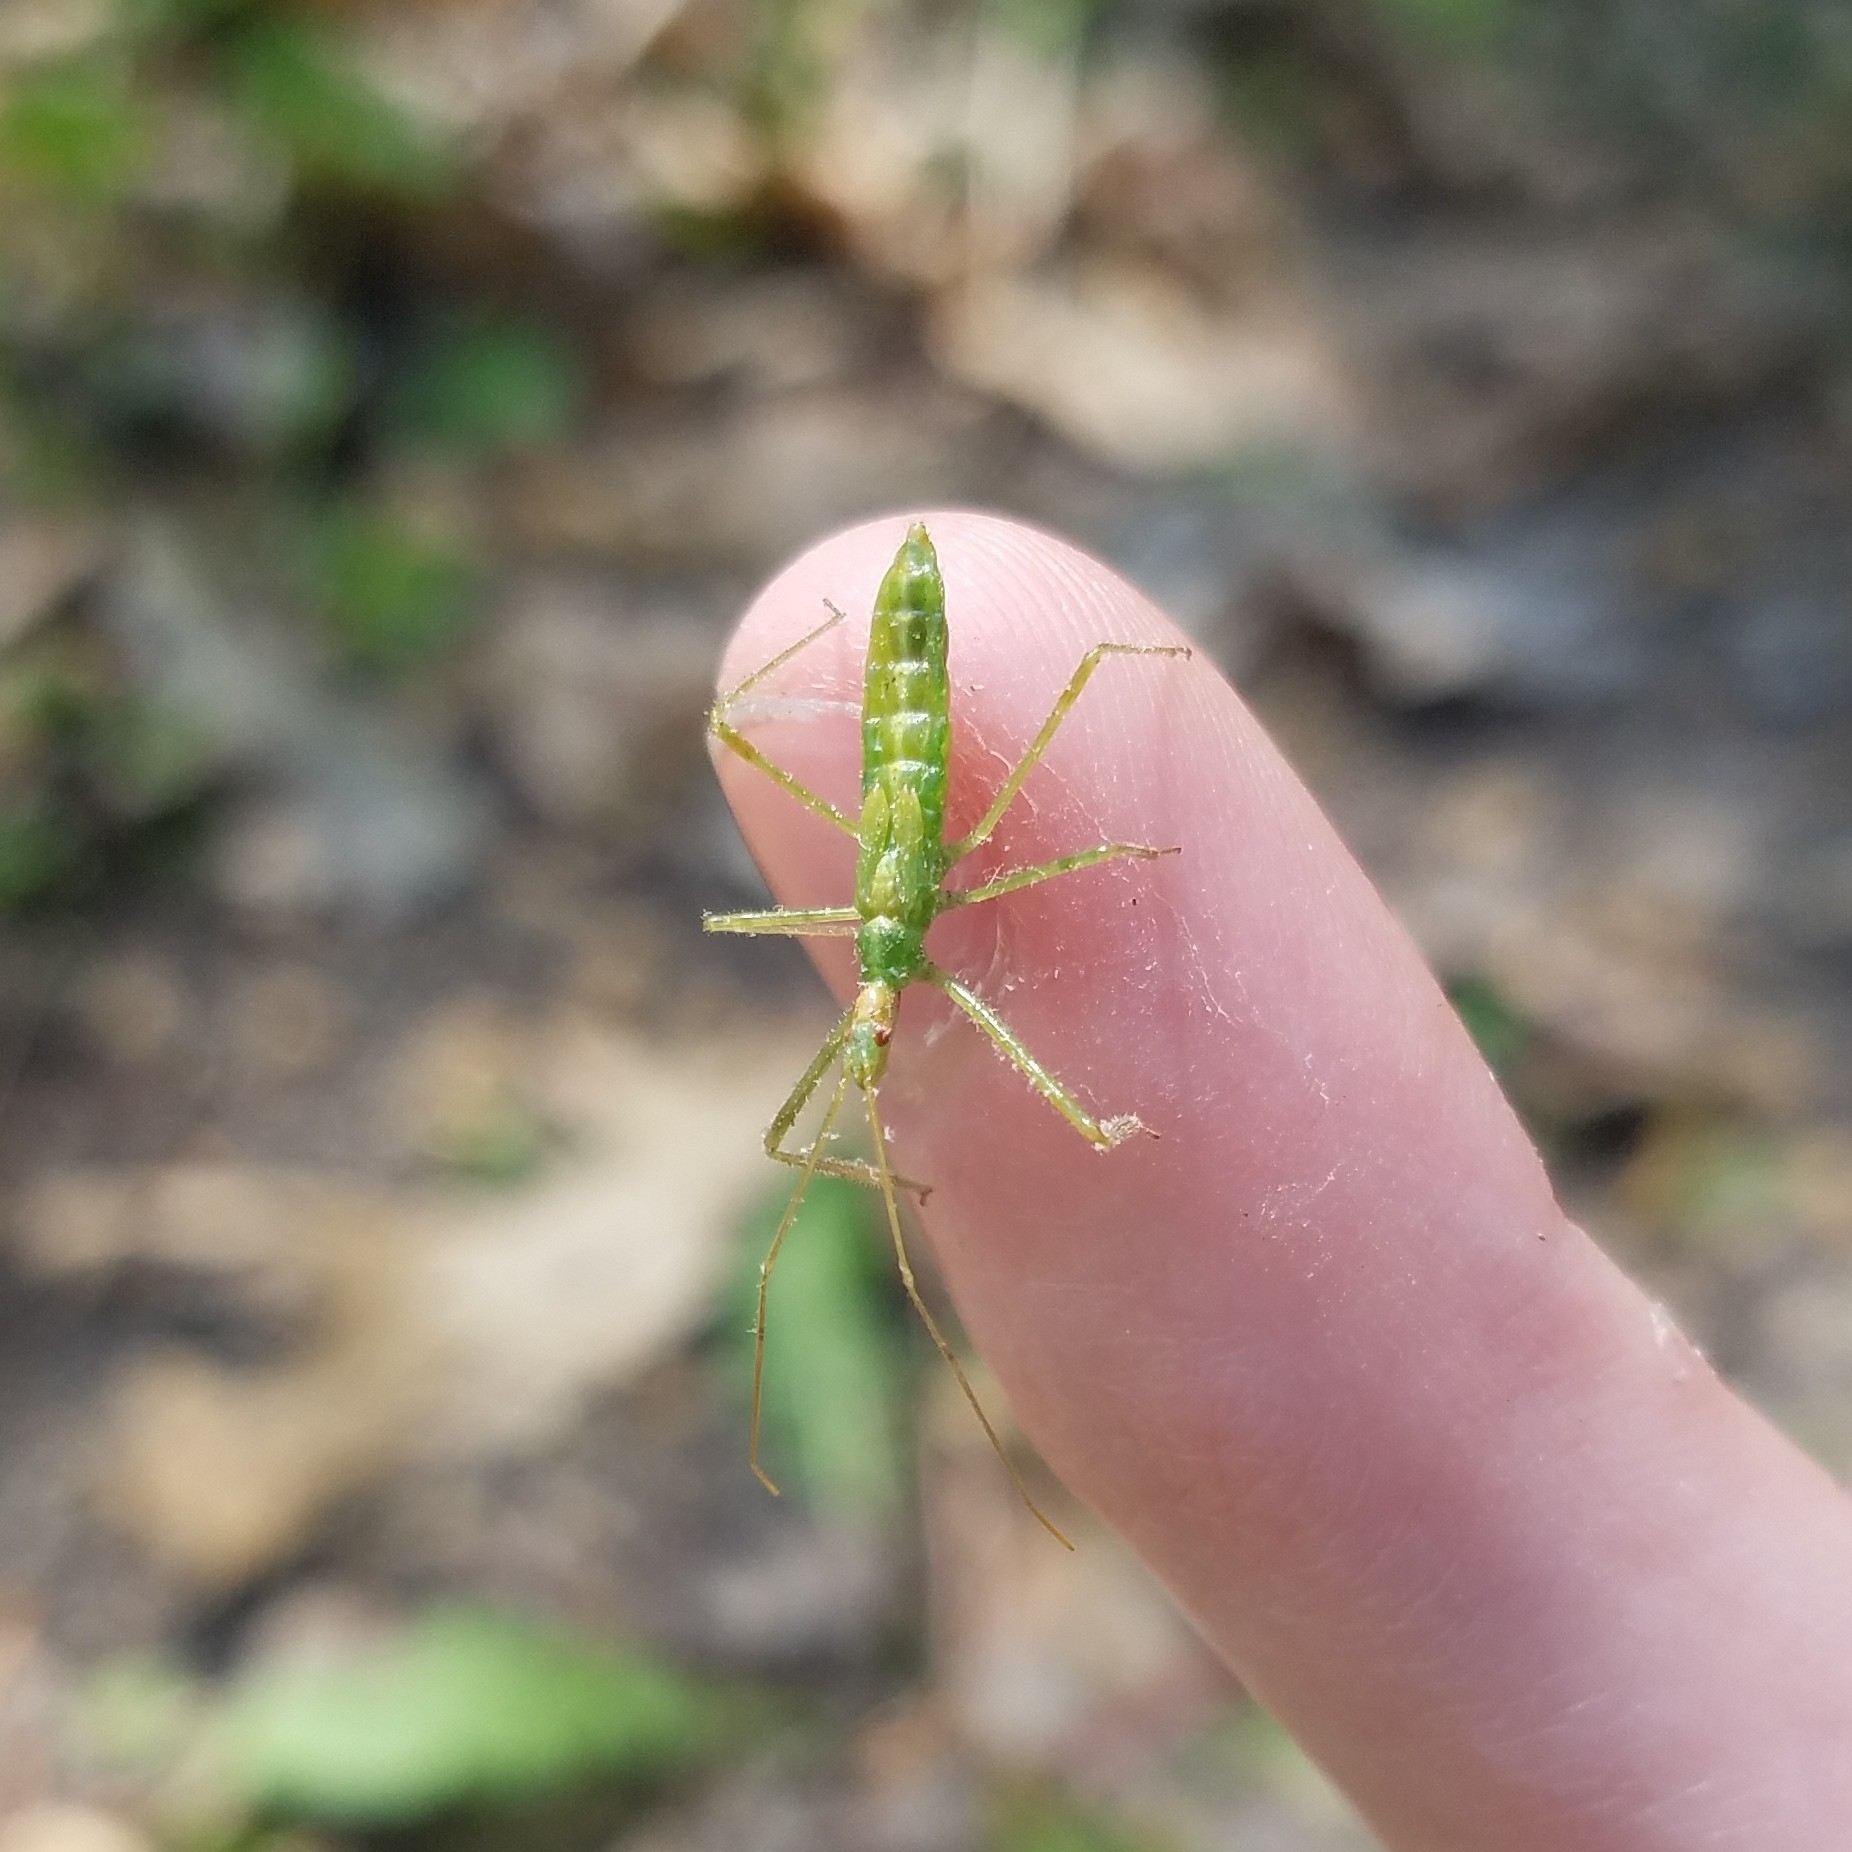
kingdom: Animalia
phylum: Arthropoda
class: Insecta
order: Hemiptera
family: Reduviidae
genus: Zelus
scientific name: Zelus luridus
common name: Pale green assassin bug
